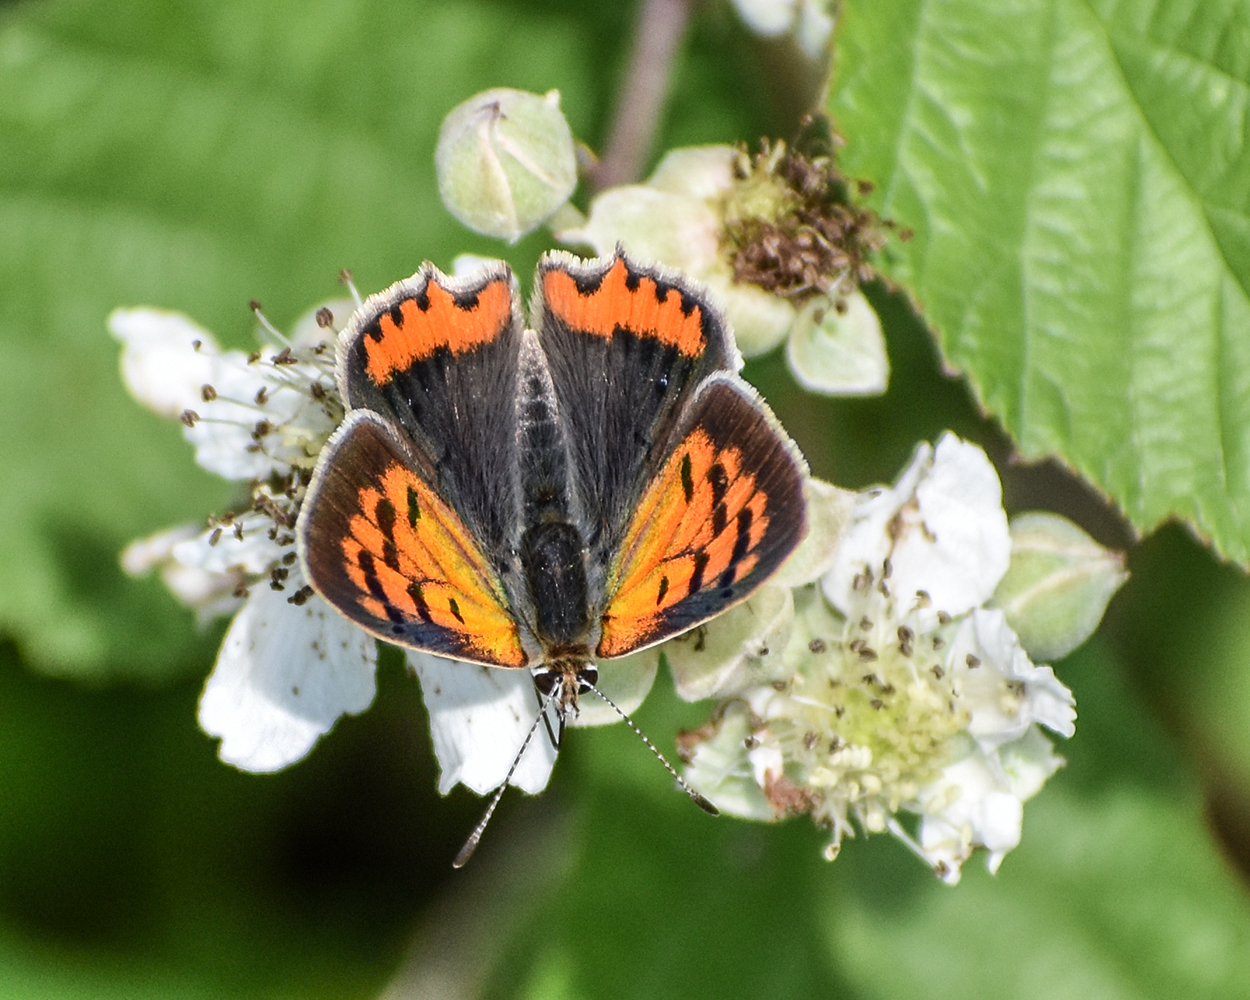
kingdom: Animalia
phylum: Arthropoda
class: Insecta
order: Lepidoptera
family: Lycaenidae
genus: Lycaena
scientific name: Lycaena phlaeas
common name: Small copper
